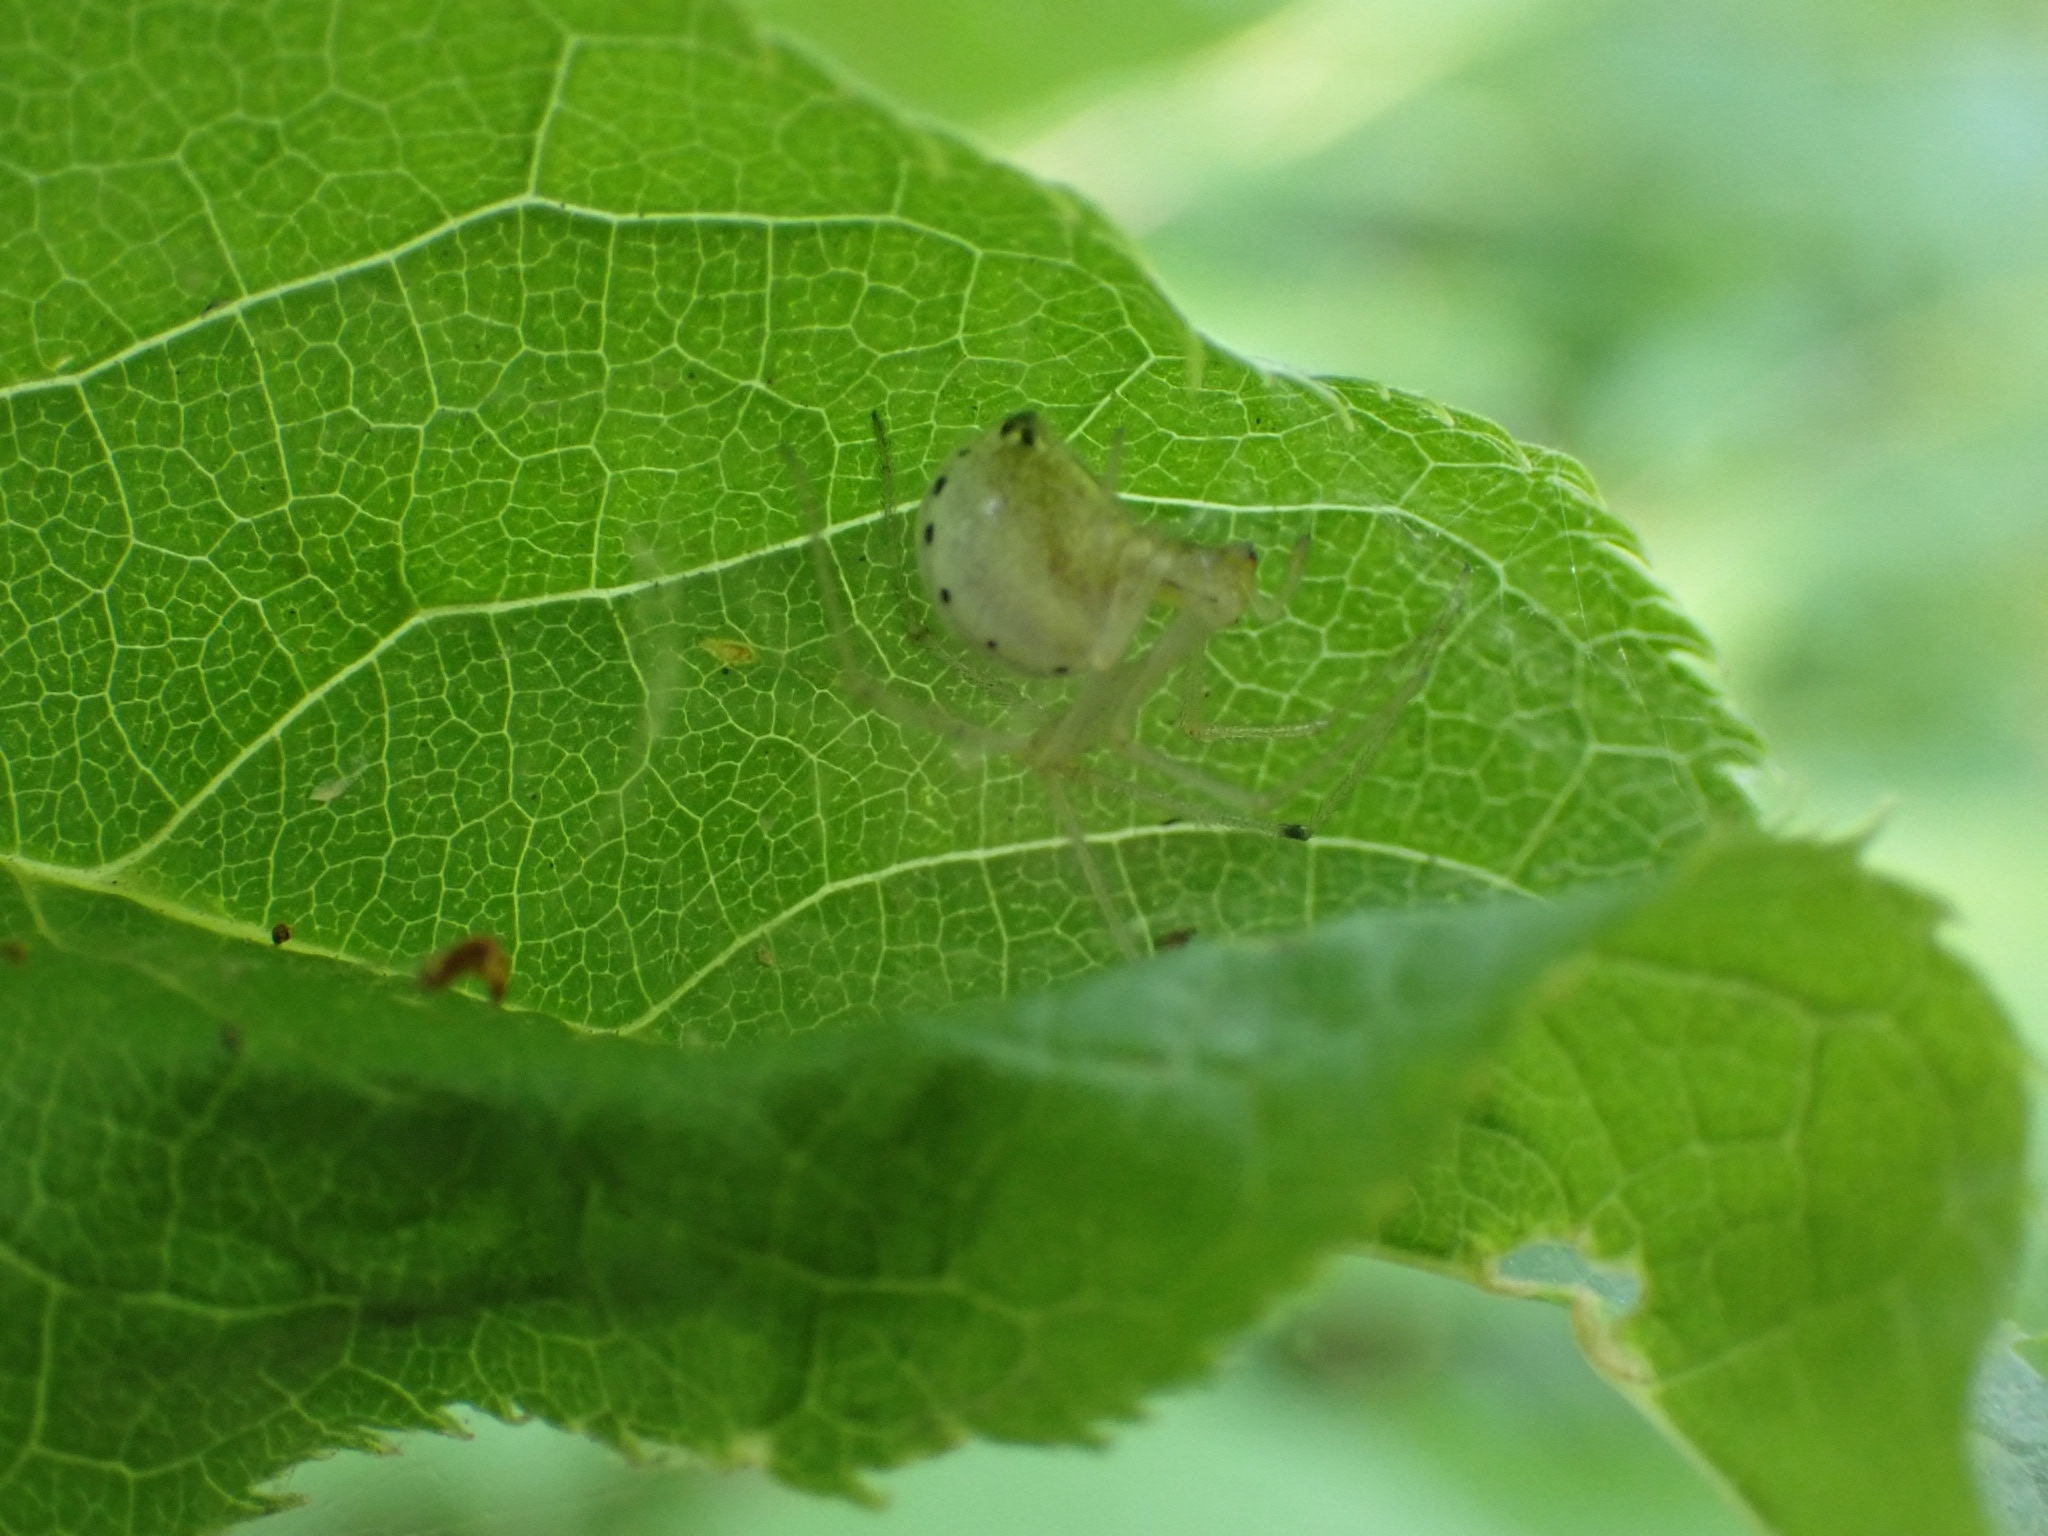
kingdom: Animalia
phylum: Arthropoda
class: Arachnida
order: Araneae
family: Theridiidae
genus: Enoplognatha
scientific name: Enoplognatha ovata
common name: Common candy-striped spider
